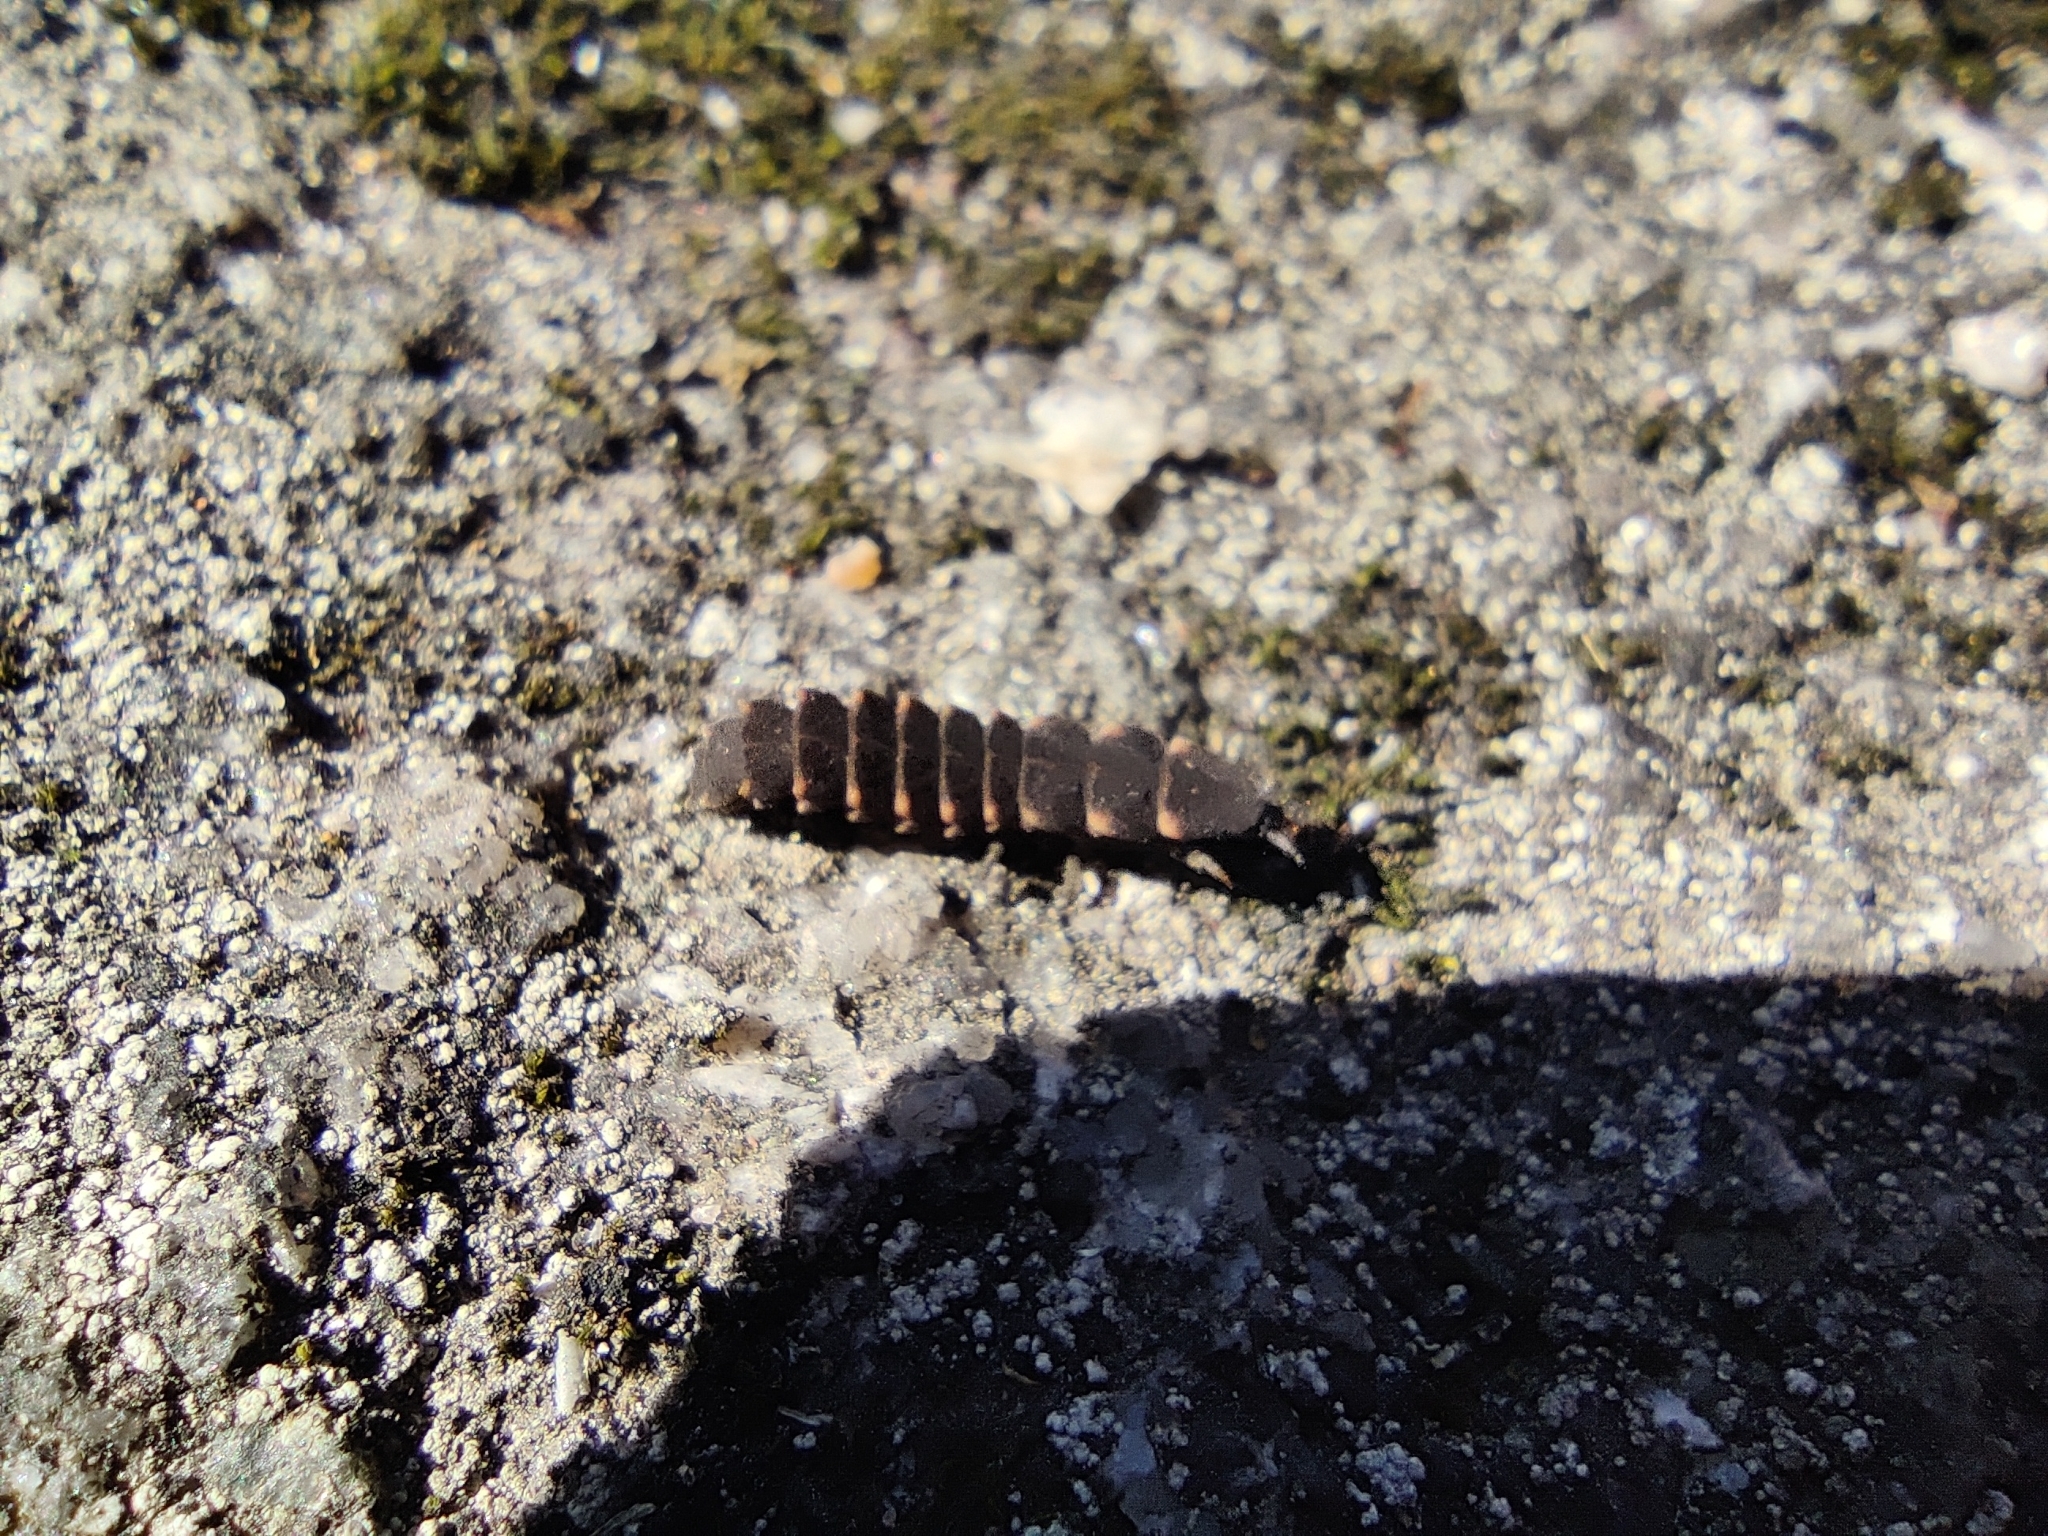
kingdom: Animalia
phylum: Arthropoda
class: Insecta
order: Coleoptera
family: Lampyridae
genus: Lampyris
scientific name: Lampyris noctiluca
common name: Glow-worm
